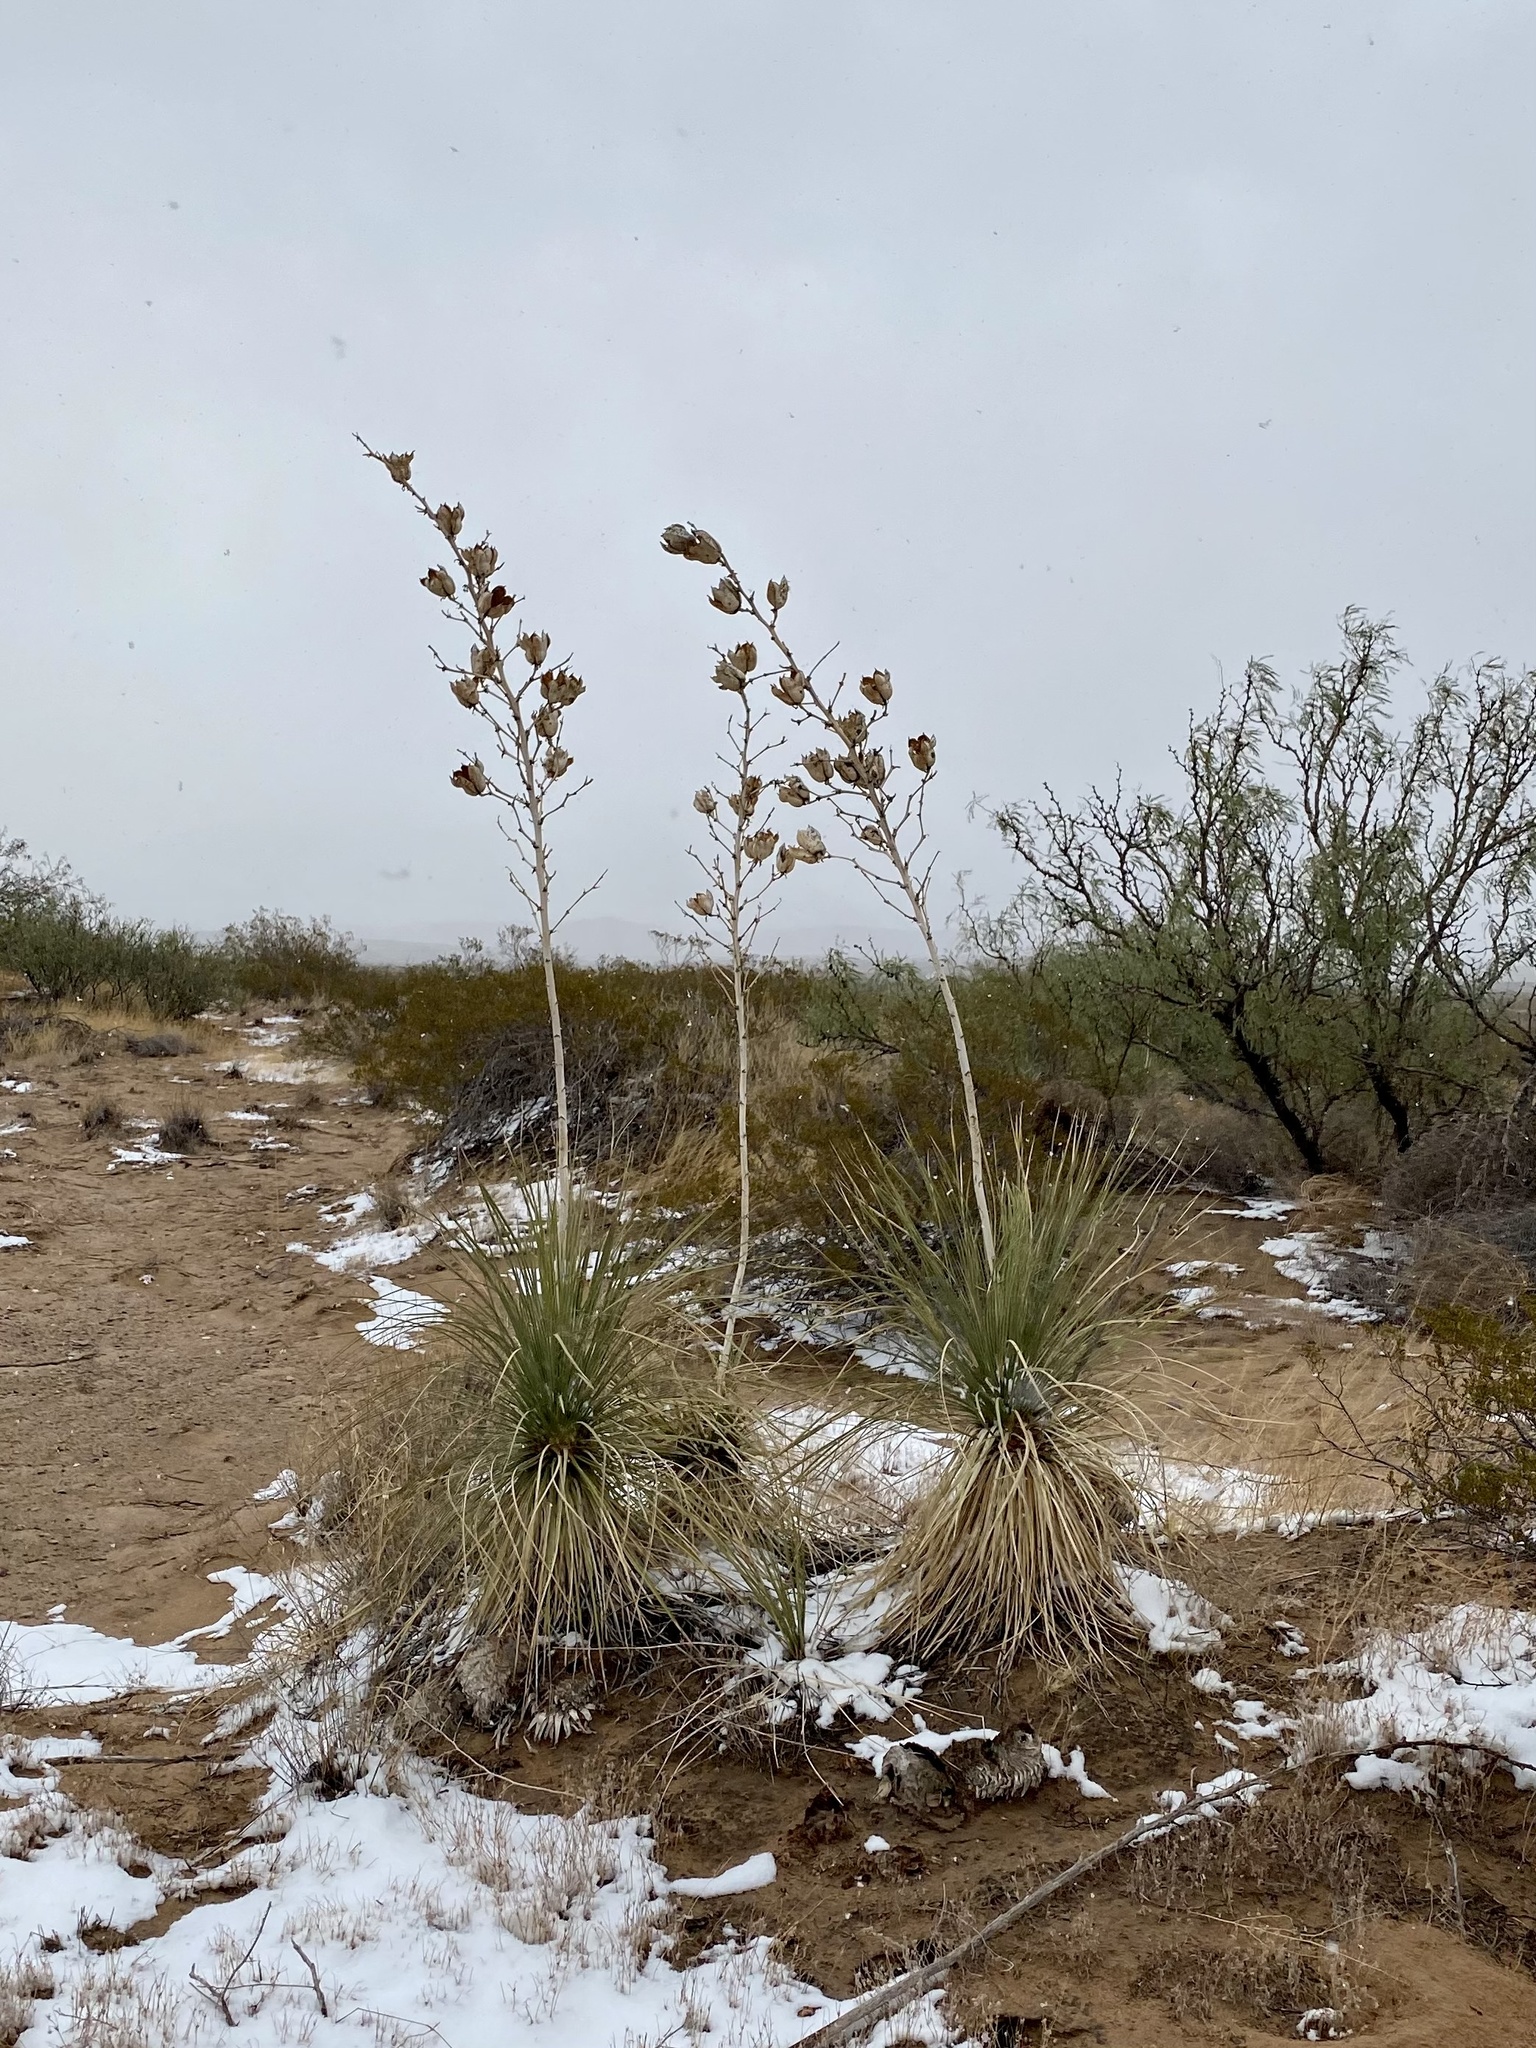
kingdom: Plantae
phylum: Tracheophyta
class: Liliopsida
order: Asparagales
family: Asparagaceae
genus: Yucca
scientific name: Yucca elata
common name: Palmella
